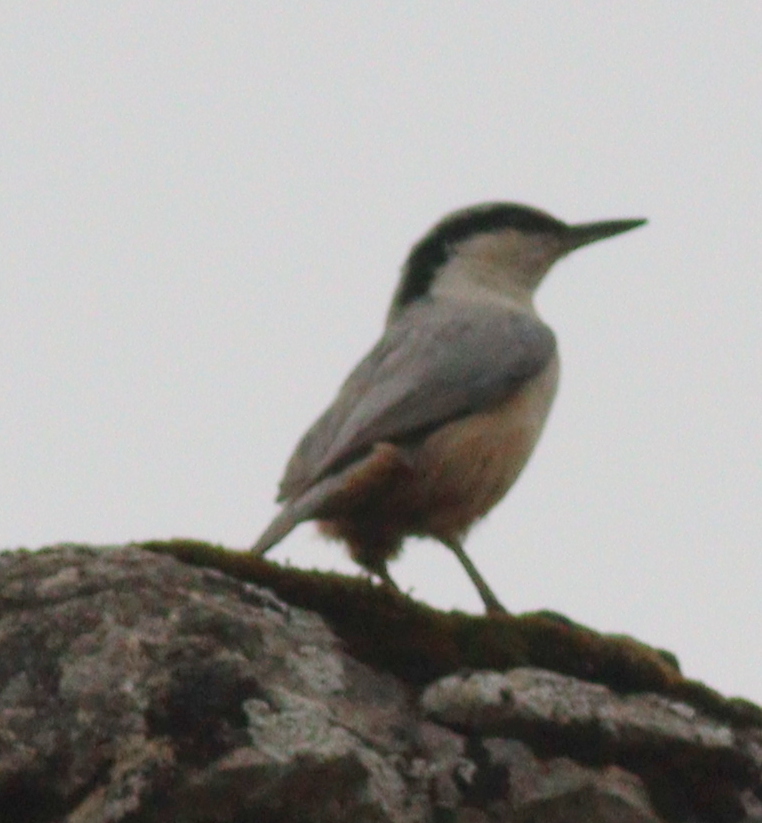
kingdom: Animalia
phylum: Chordata
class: Aves
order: Passeriformes
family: Sittidae
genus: Sitta
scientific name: Sitta tephronota
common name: Eastern rock nuthatch
